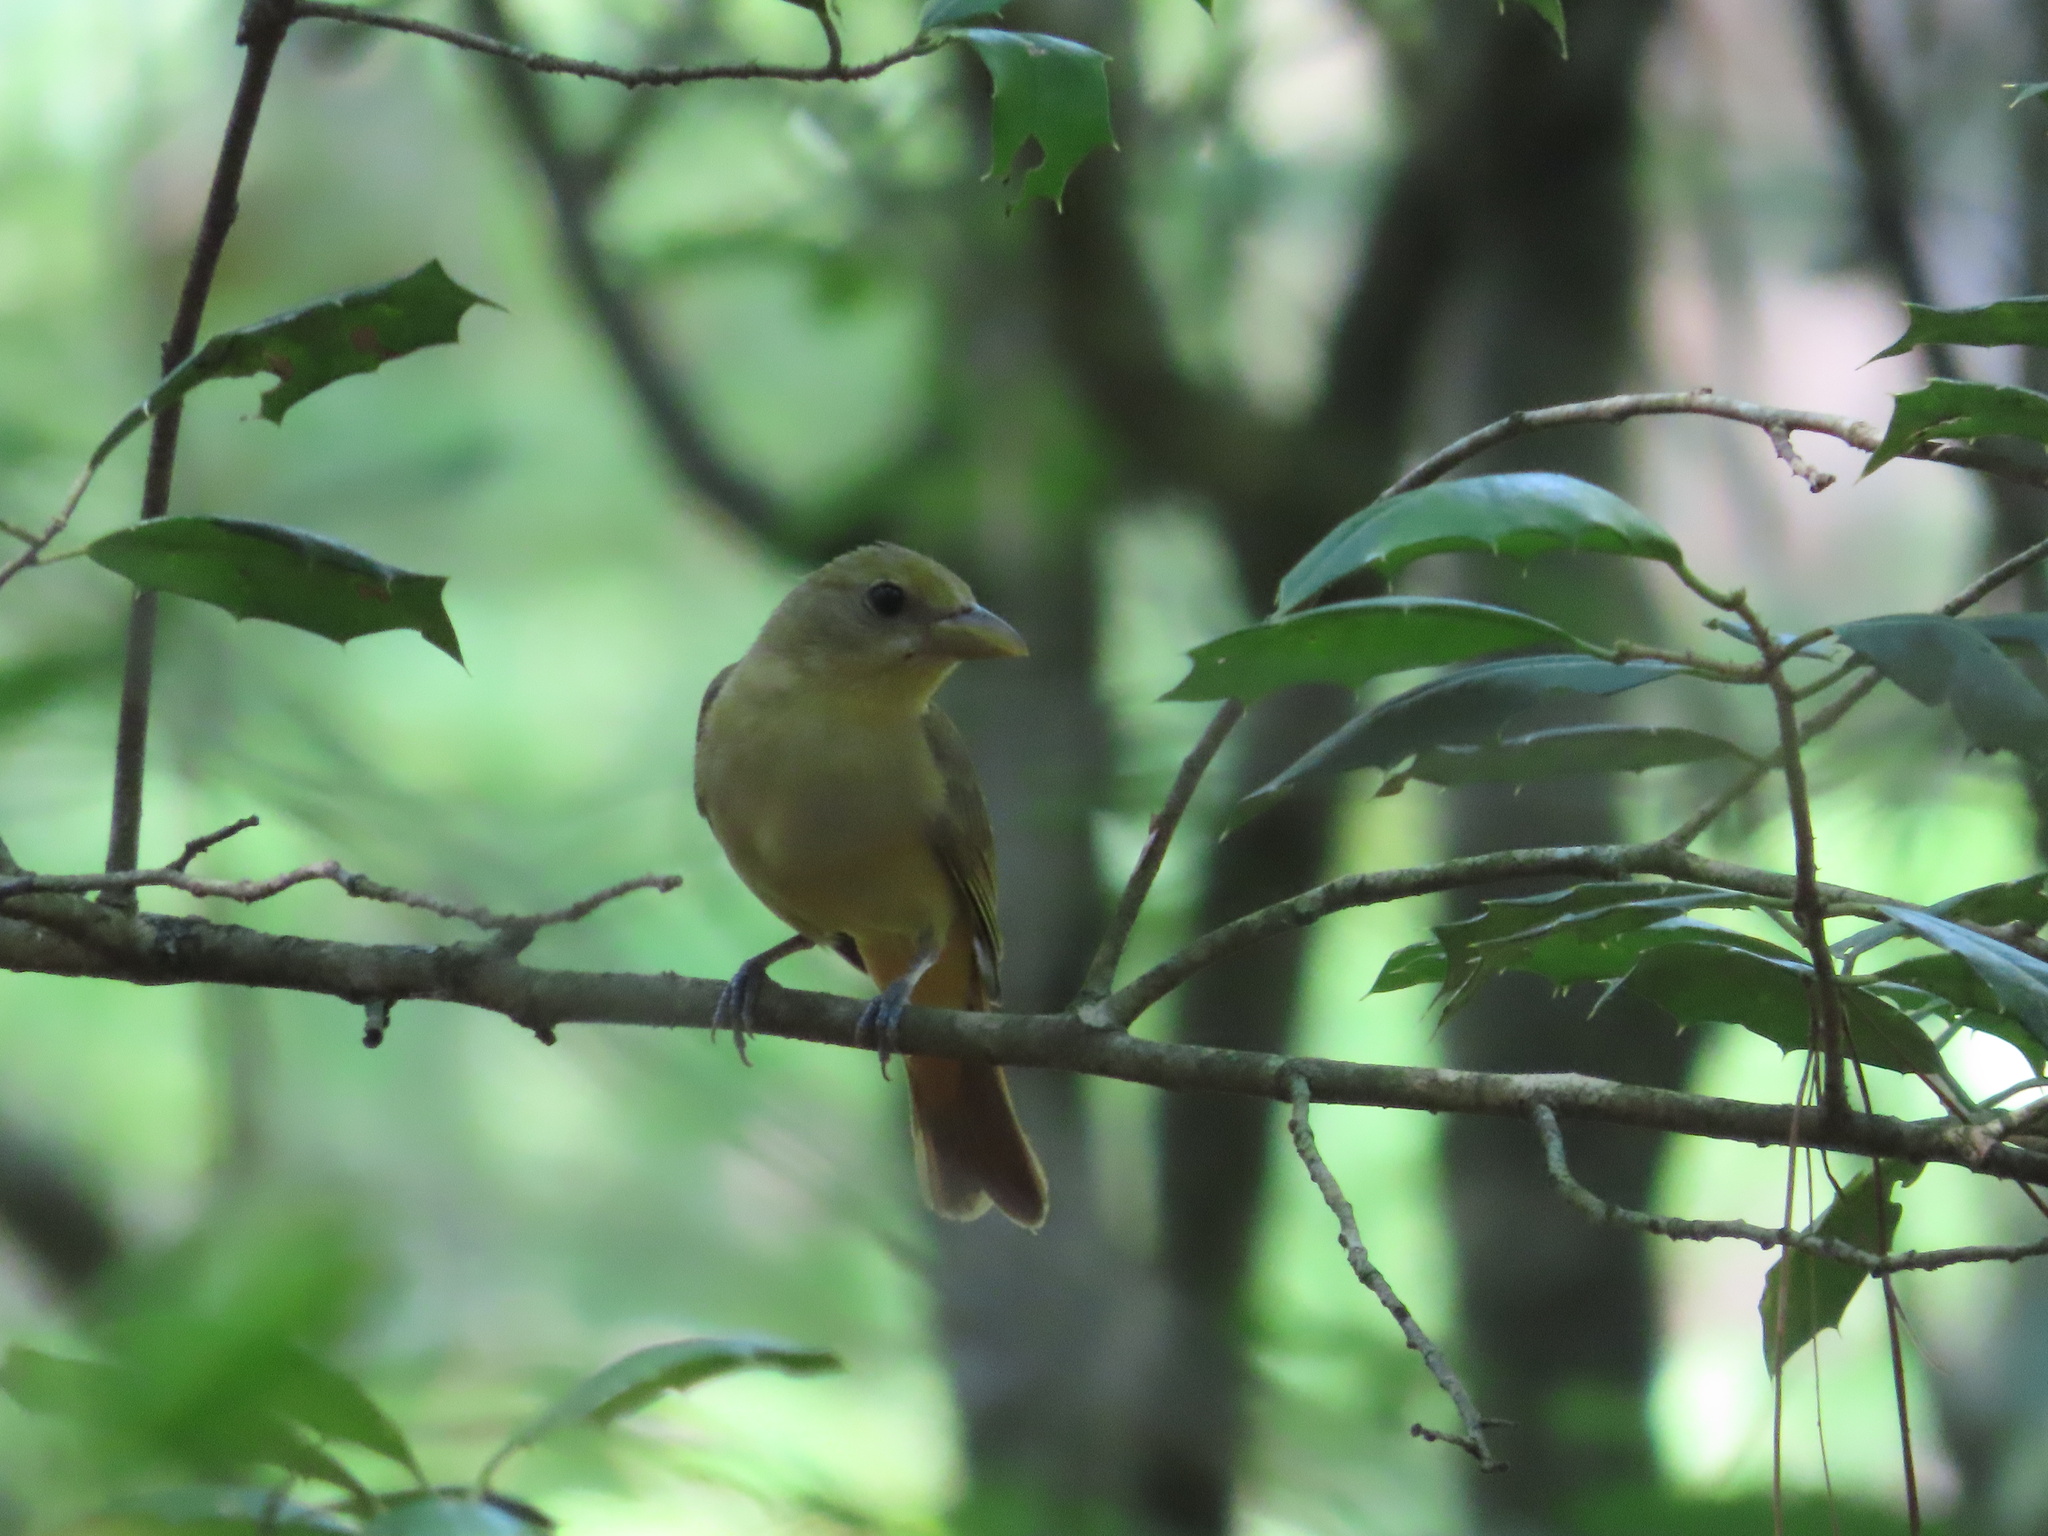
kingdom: Animalia
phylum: Chordata
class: Aves
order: Passeriformes
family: Cardinalidae
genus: Piranga
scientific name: Piranga rubra
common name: Summer tanager
